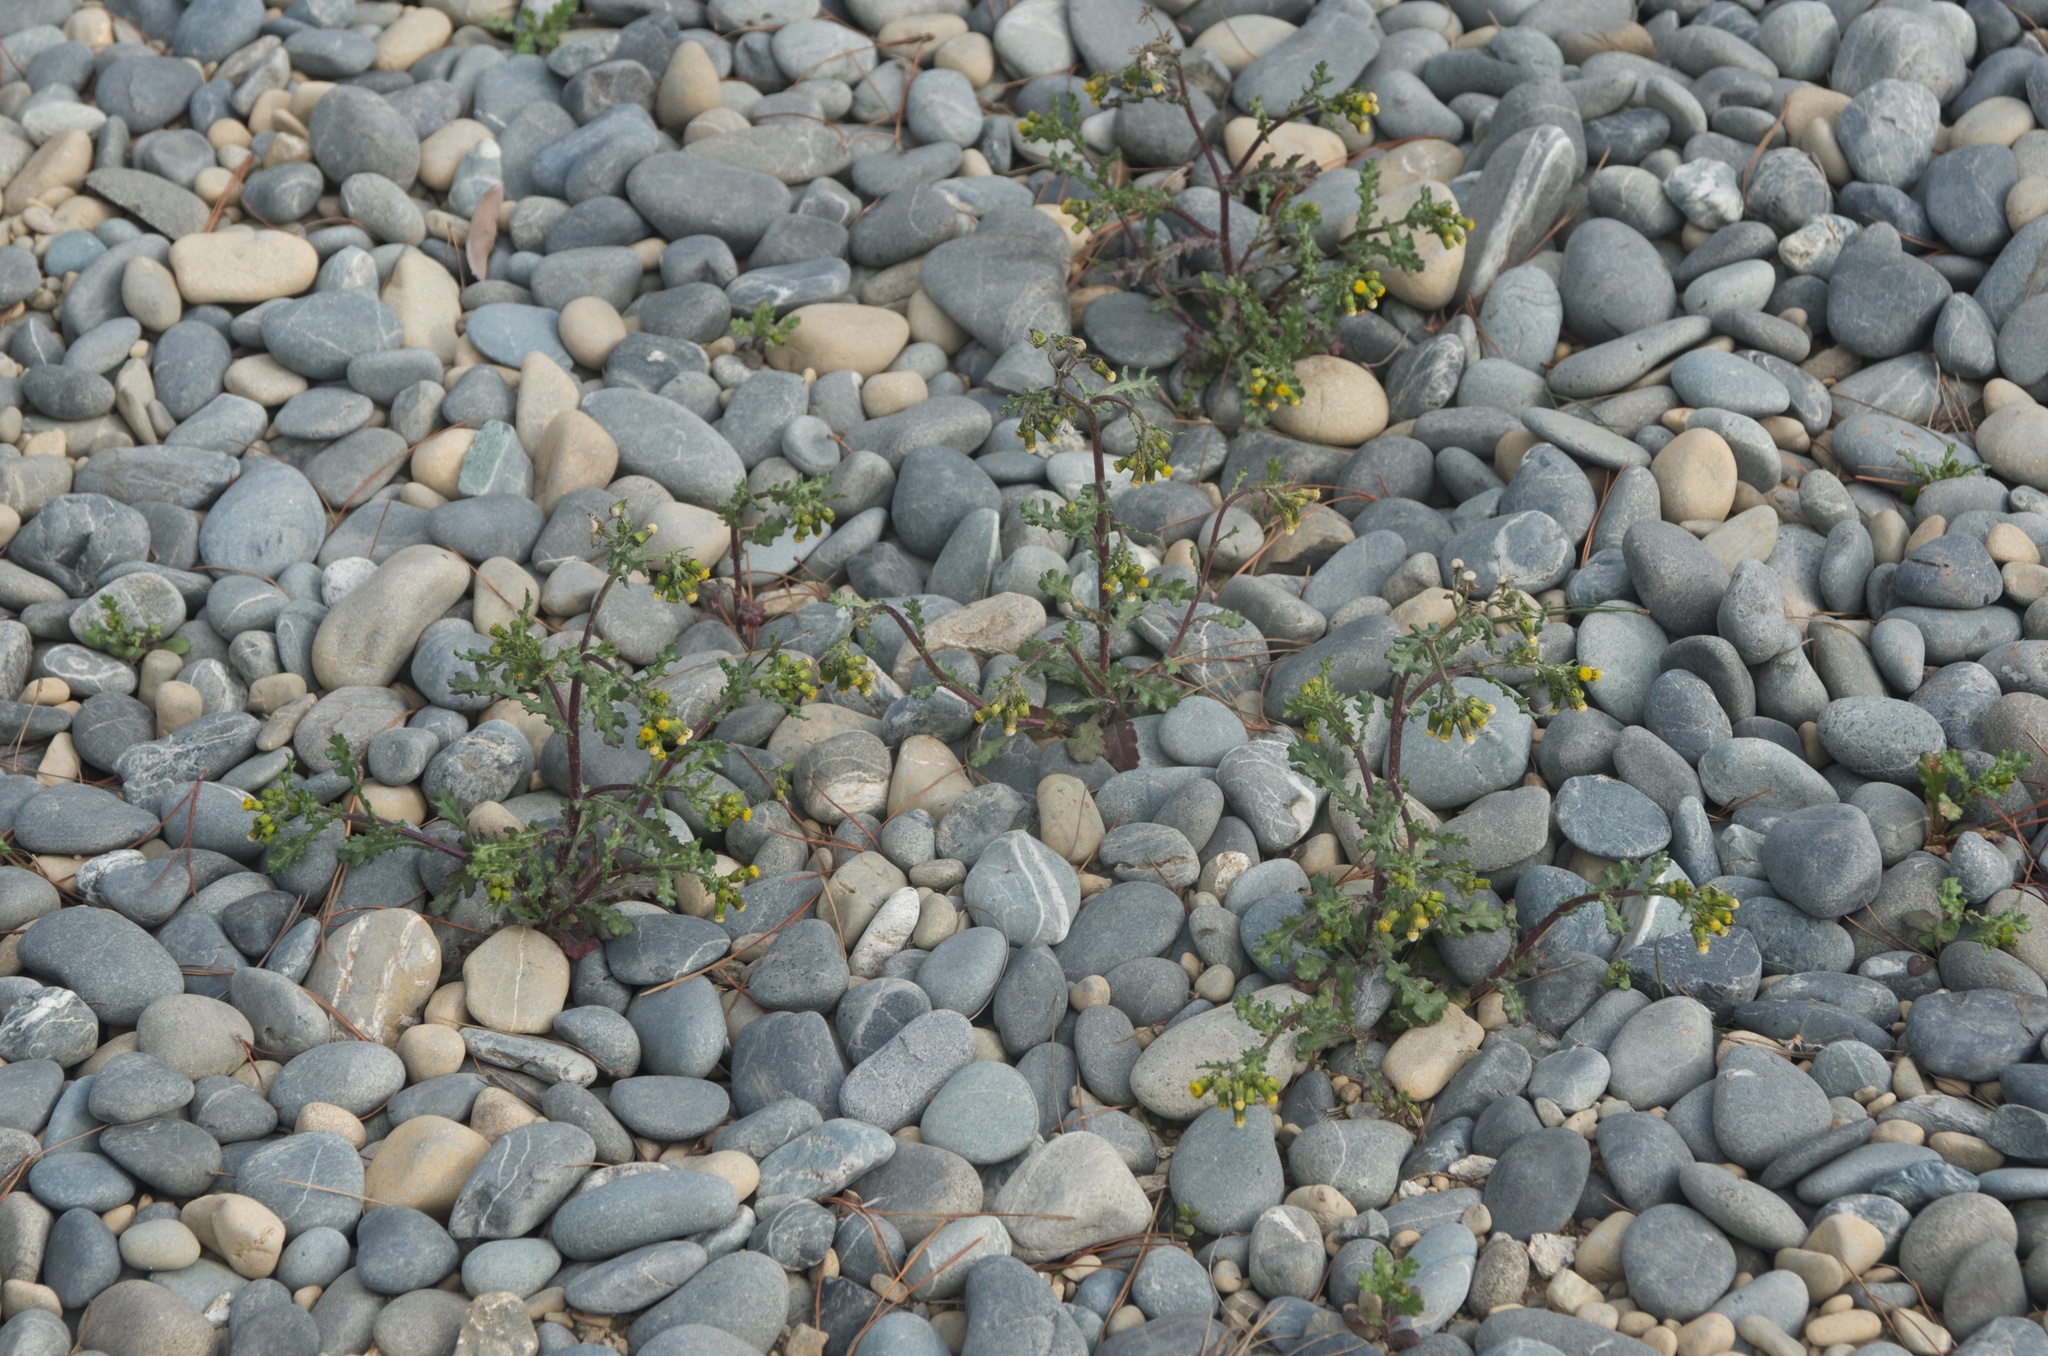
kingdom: Plantae
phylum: Tracheophyta
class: Magnoliopsida
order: Asterales
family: Asteraceae
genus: Senecio
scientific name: Senecio vulgaris
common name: Old-man-in-the-spring
